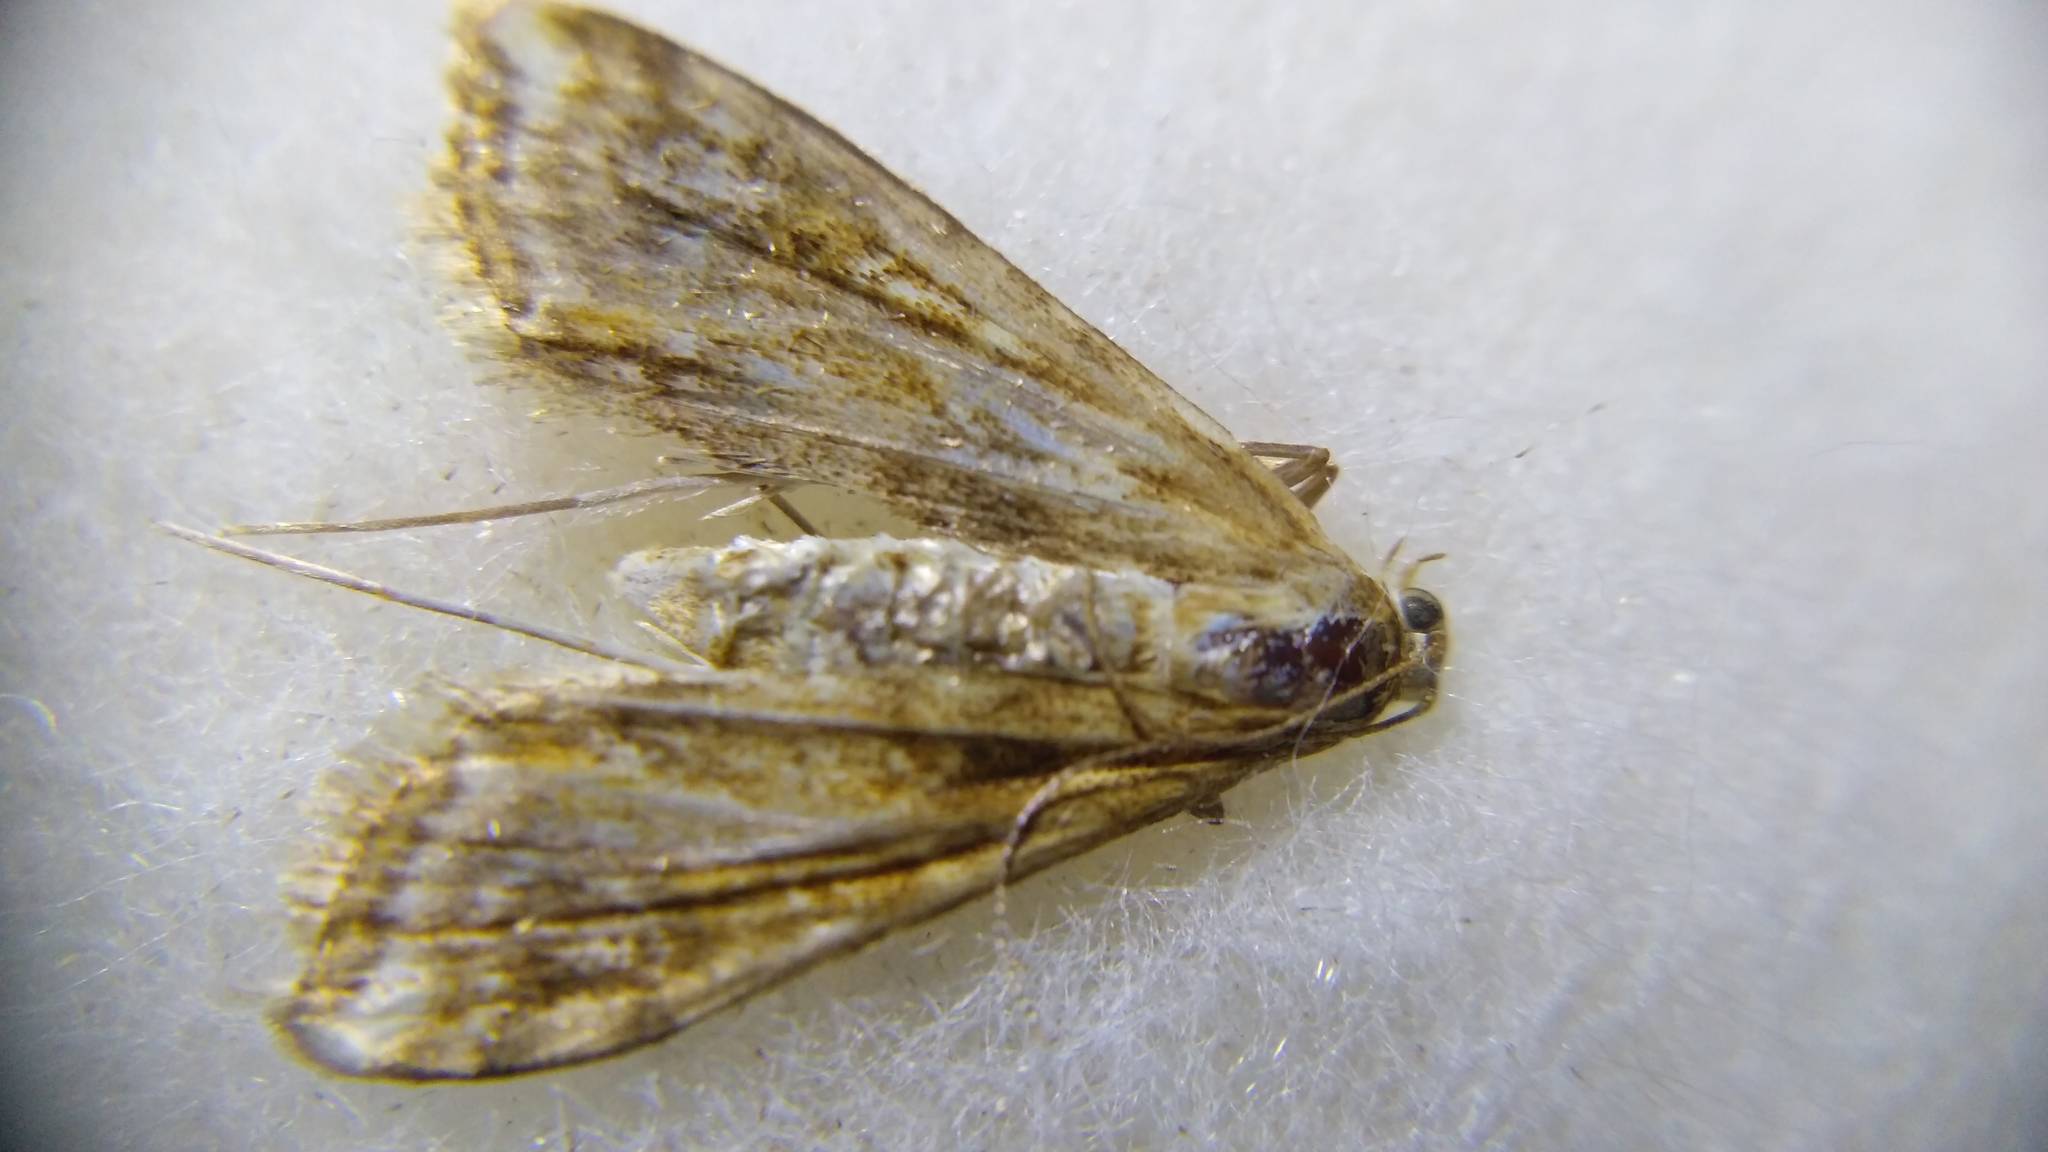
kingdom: Animalia
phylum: Arthropoda
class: Insecta
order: Lepidoptera
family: Crambidae
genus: Cataclysta
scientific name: Cataclysta lemnata
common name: Small china-mark
